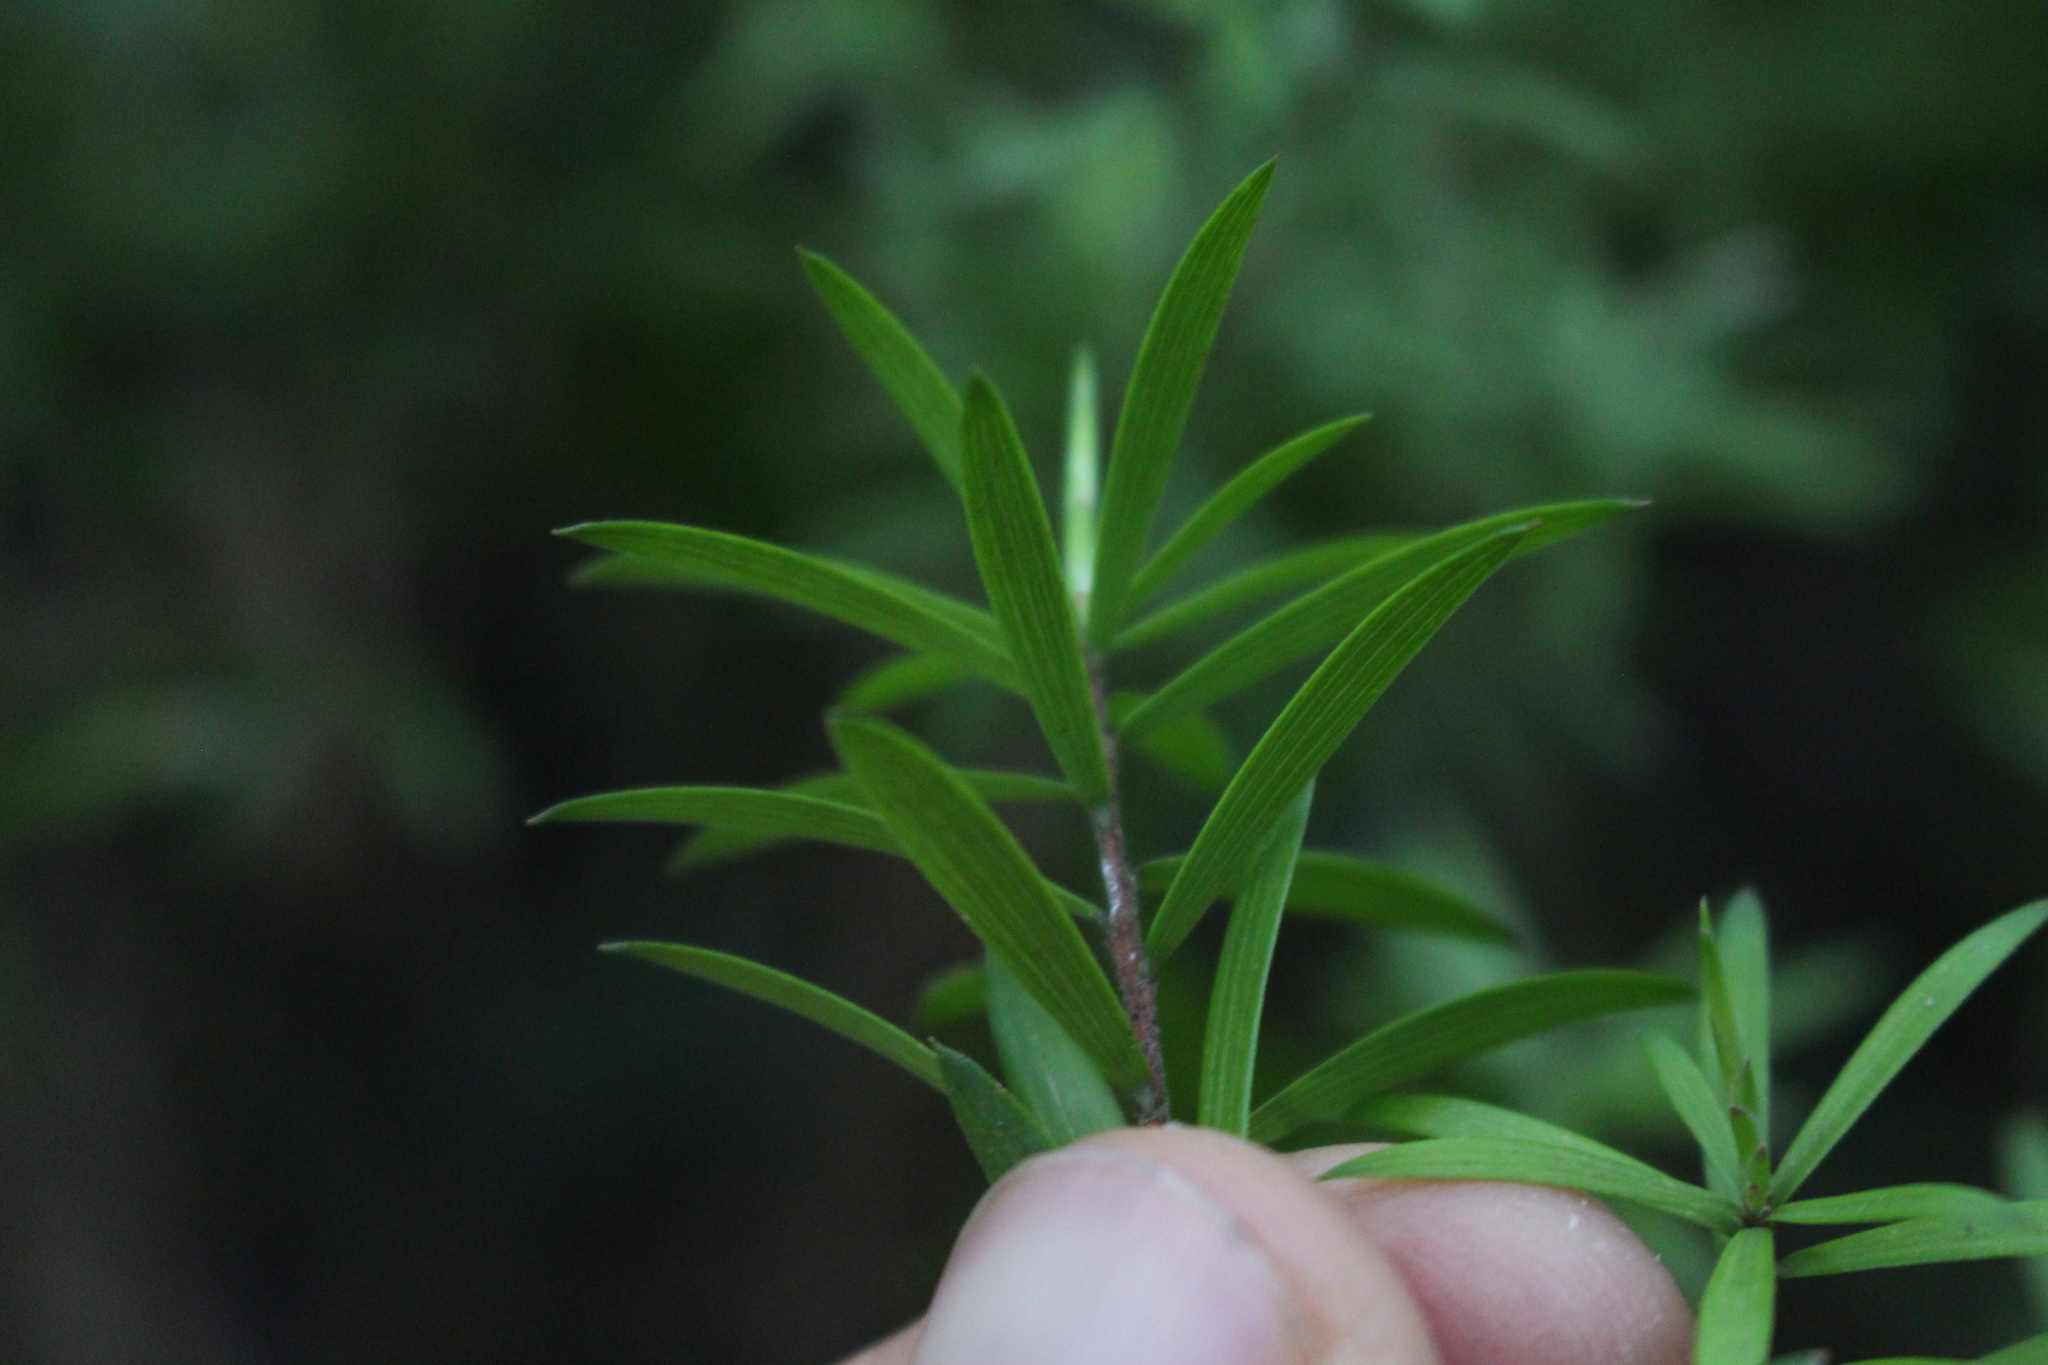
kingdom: Plantae
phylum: Tracheophyta
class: Magnoliopsida
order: Ericales
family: Ericaceae
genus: Leucopogon
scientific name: Leucopogon fasciculatus
